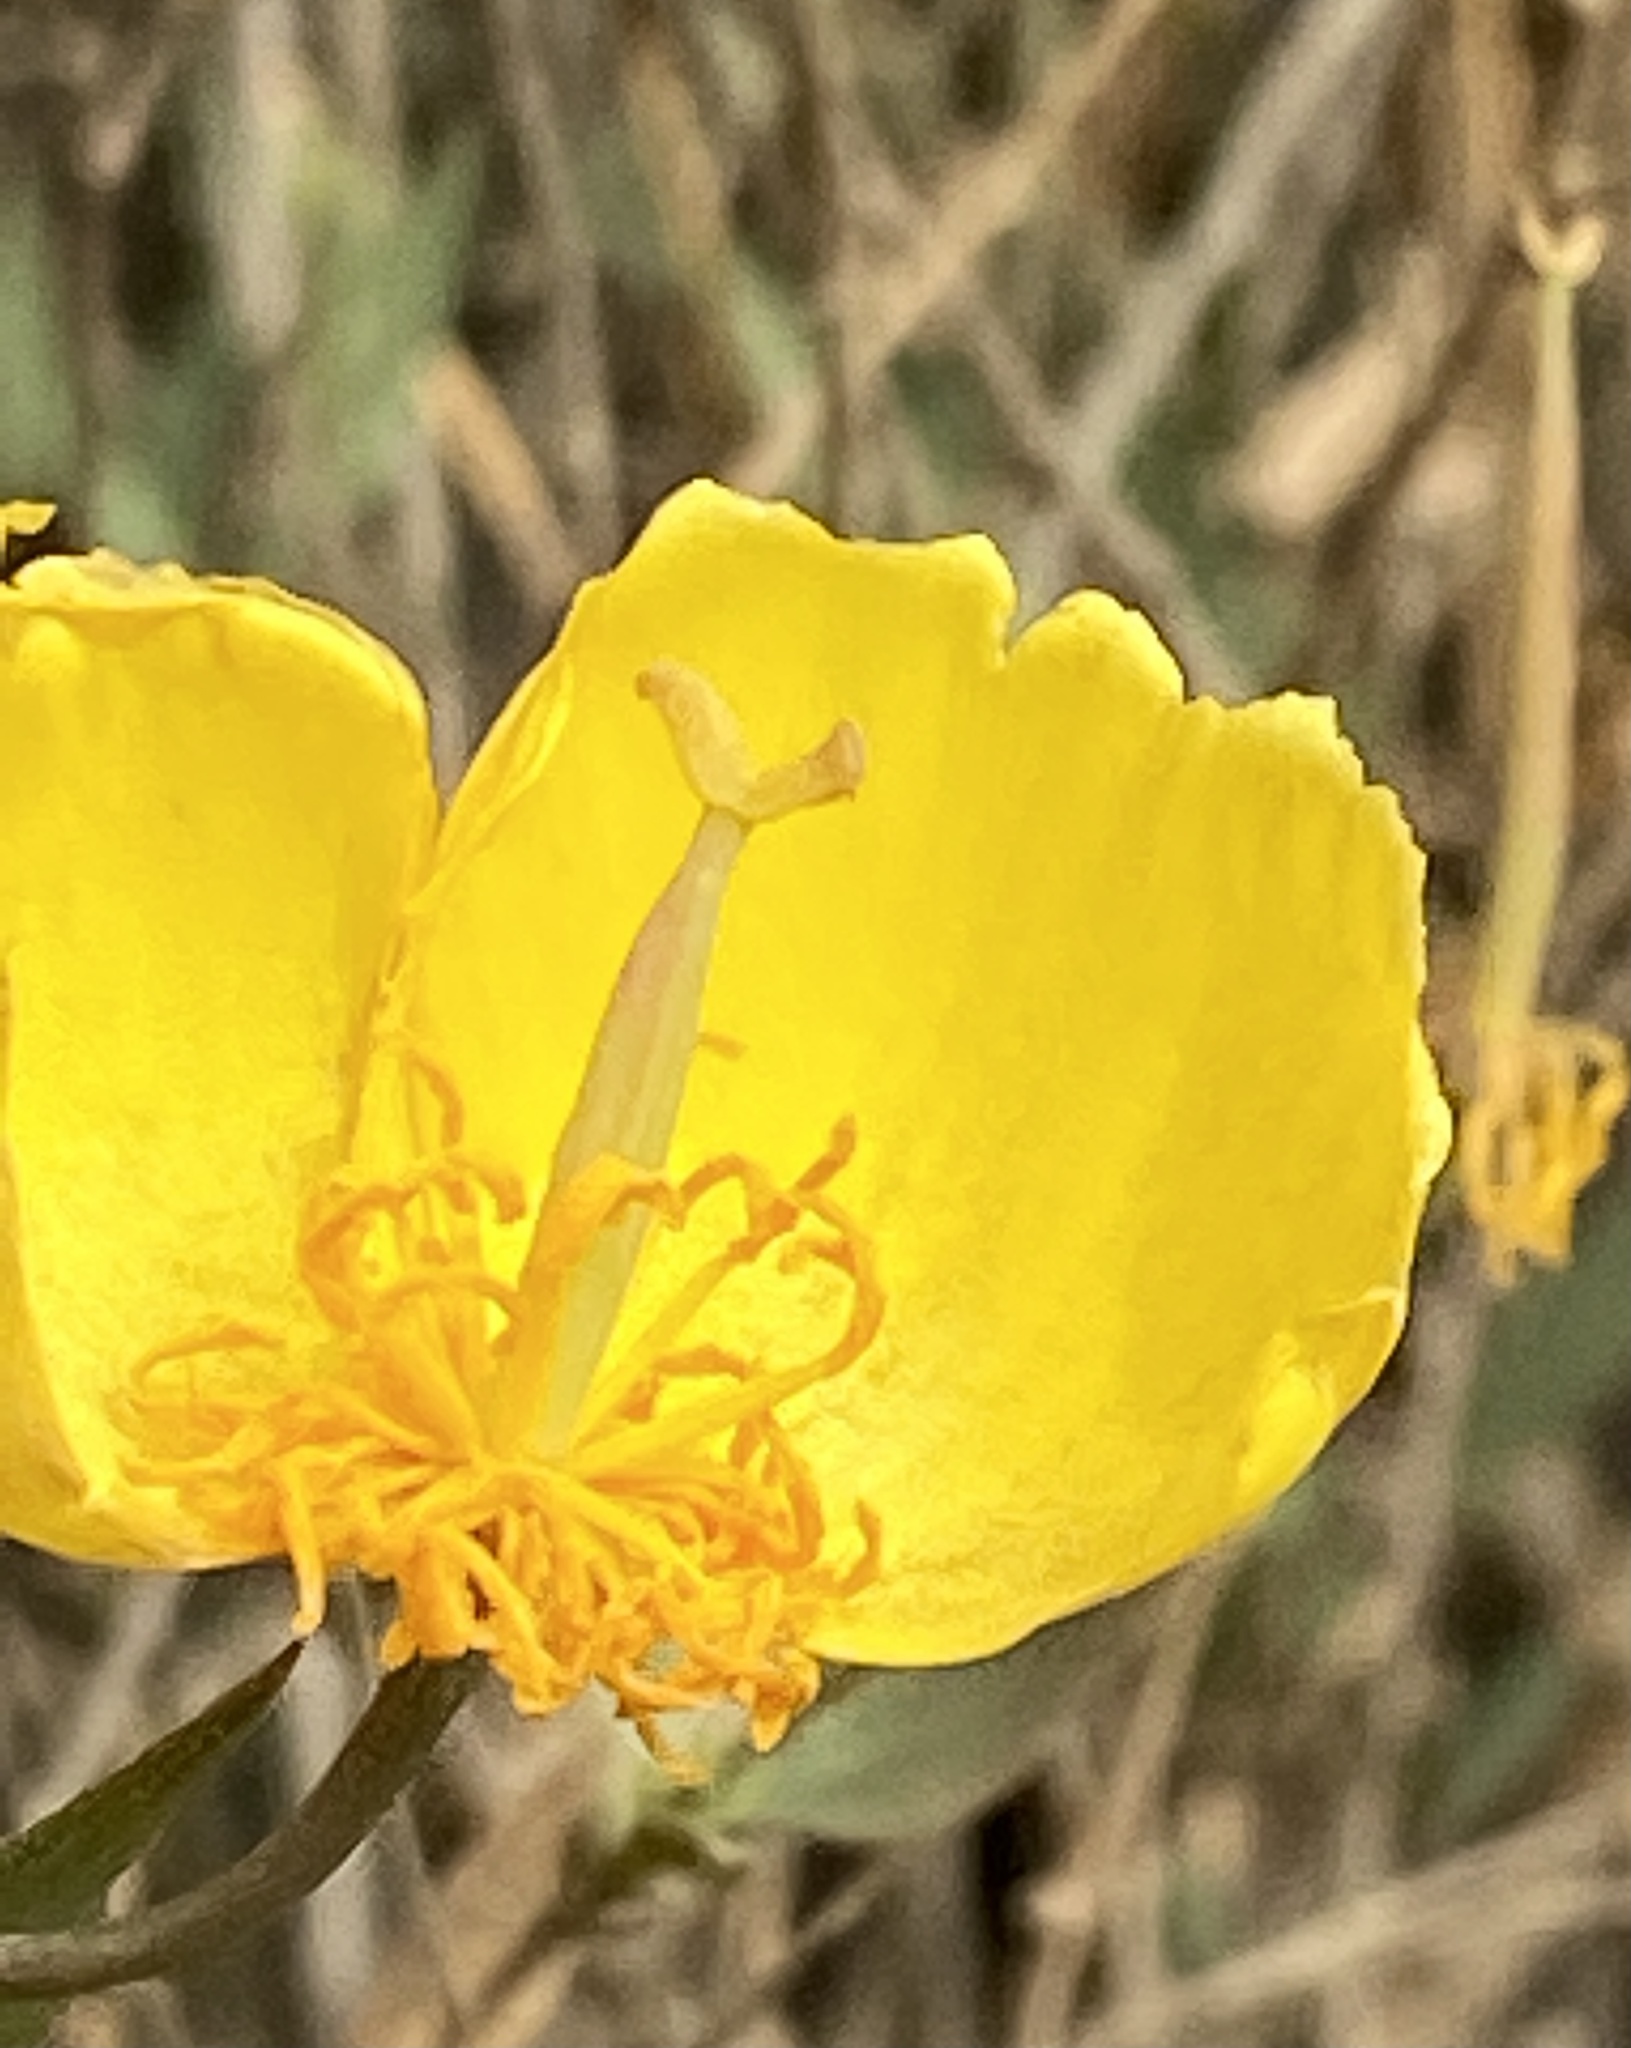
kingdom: Plantae
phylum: Tracheophyta
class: Magnoliopsida
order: Ranunculales
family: Papaveraceae
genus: Dendromecon
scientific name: Dendromecon rigida
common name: Tree poppy
